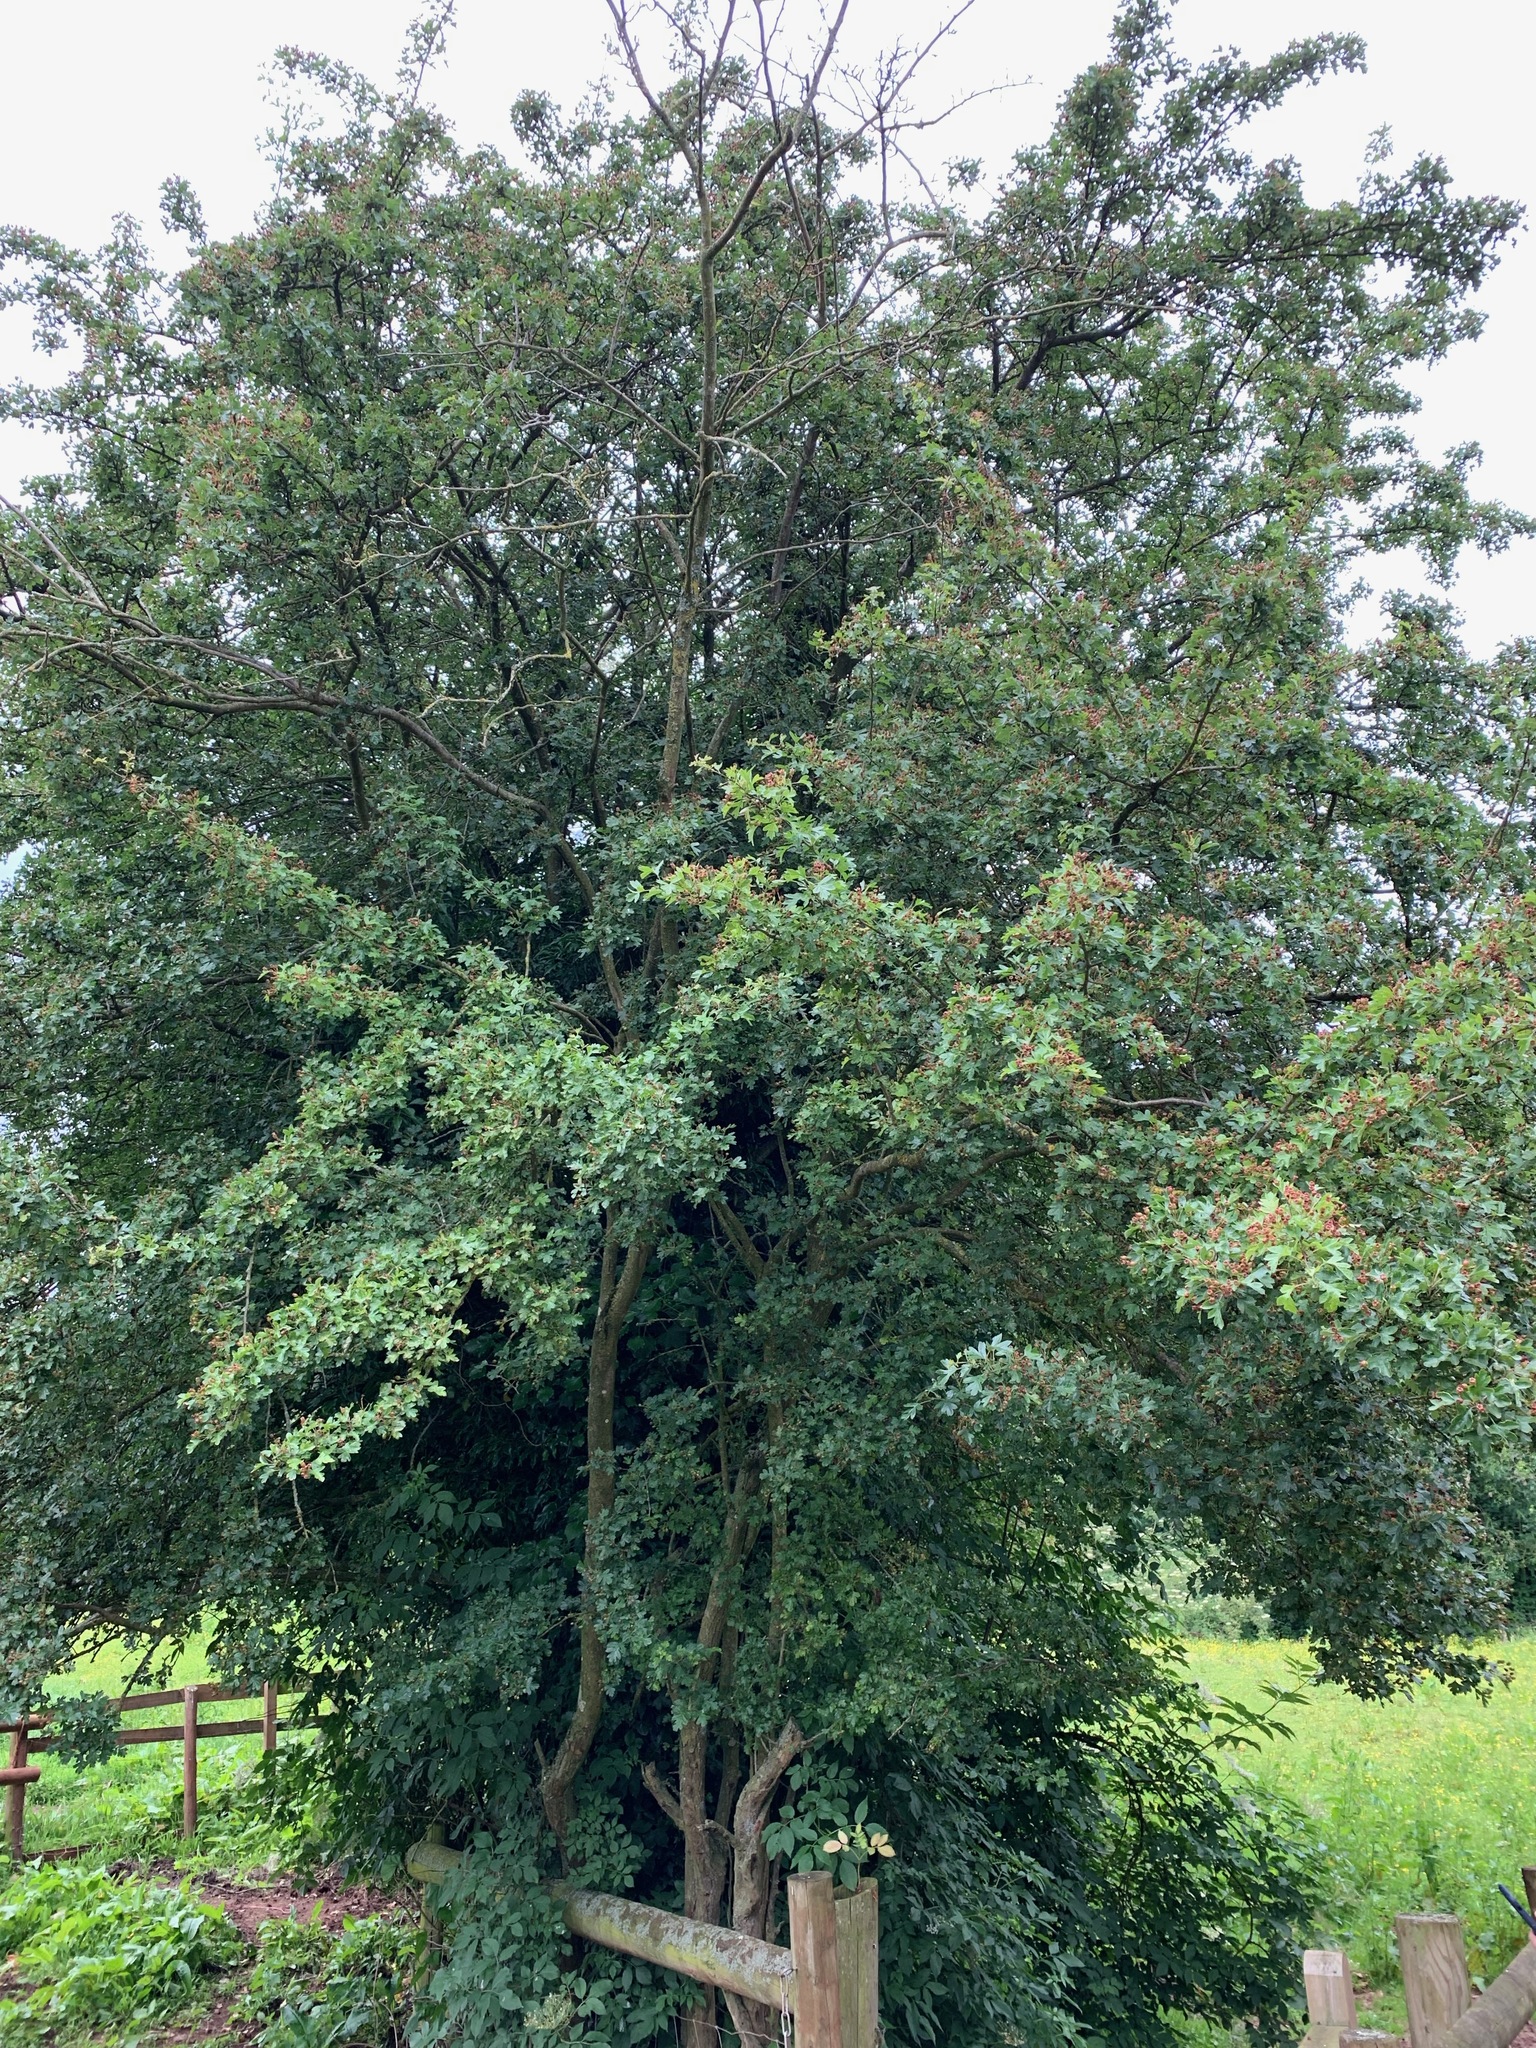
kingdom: Plantae
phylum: Tracheophyta
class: Magnoliopsida
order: Rosales
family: Rosaceae
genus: Crataegus
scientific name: Crataegus monogyna
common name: Hawthorn
